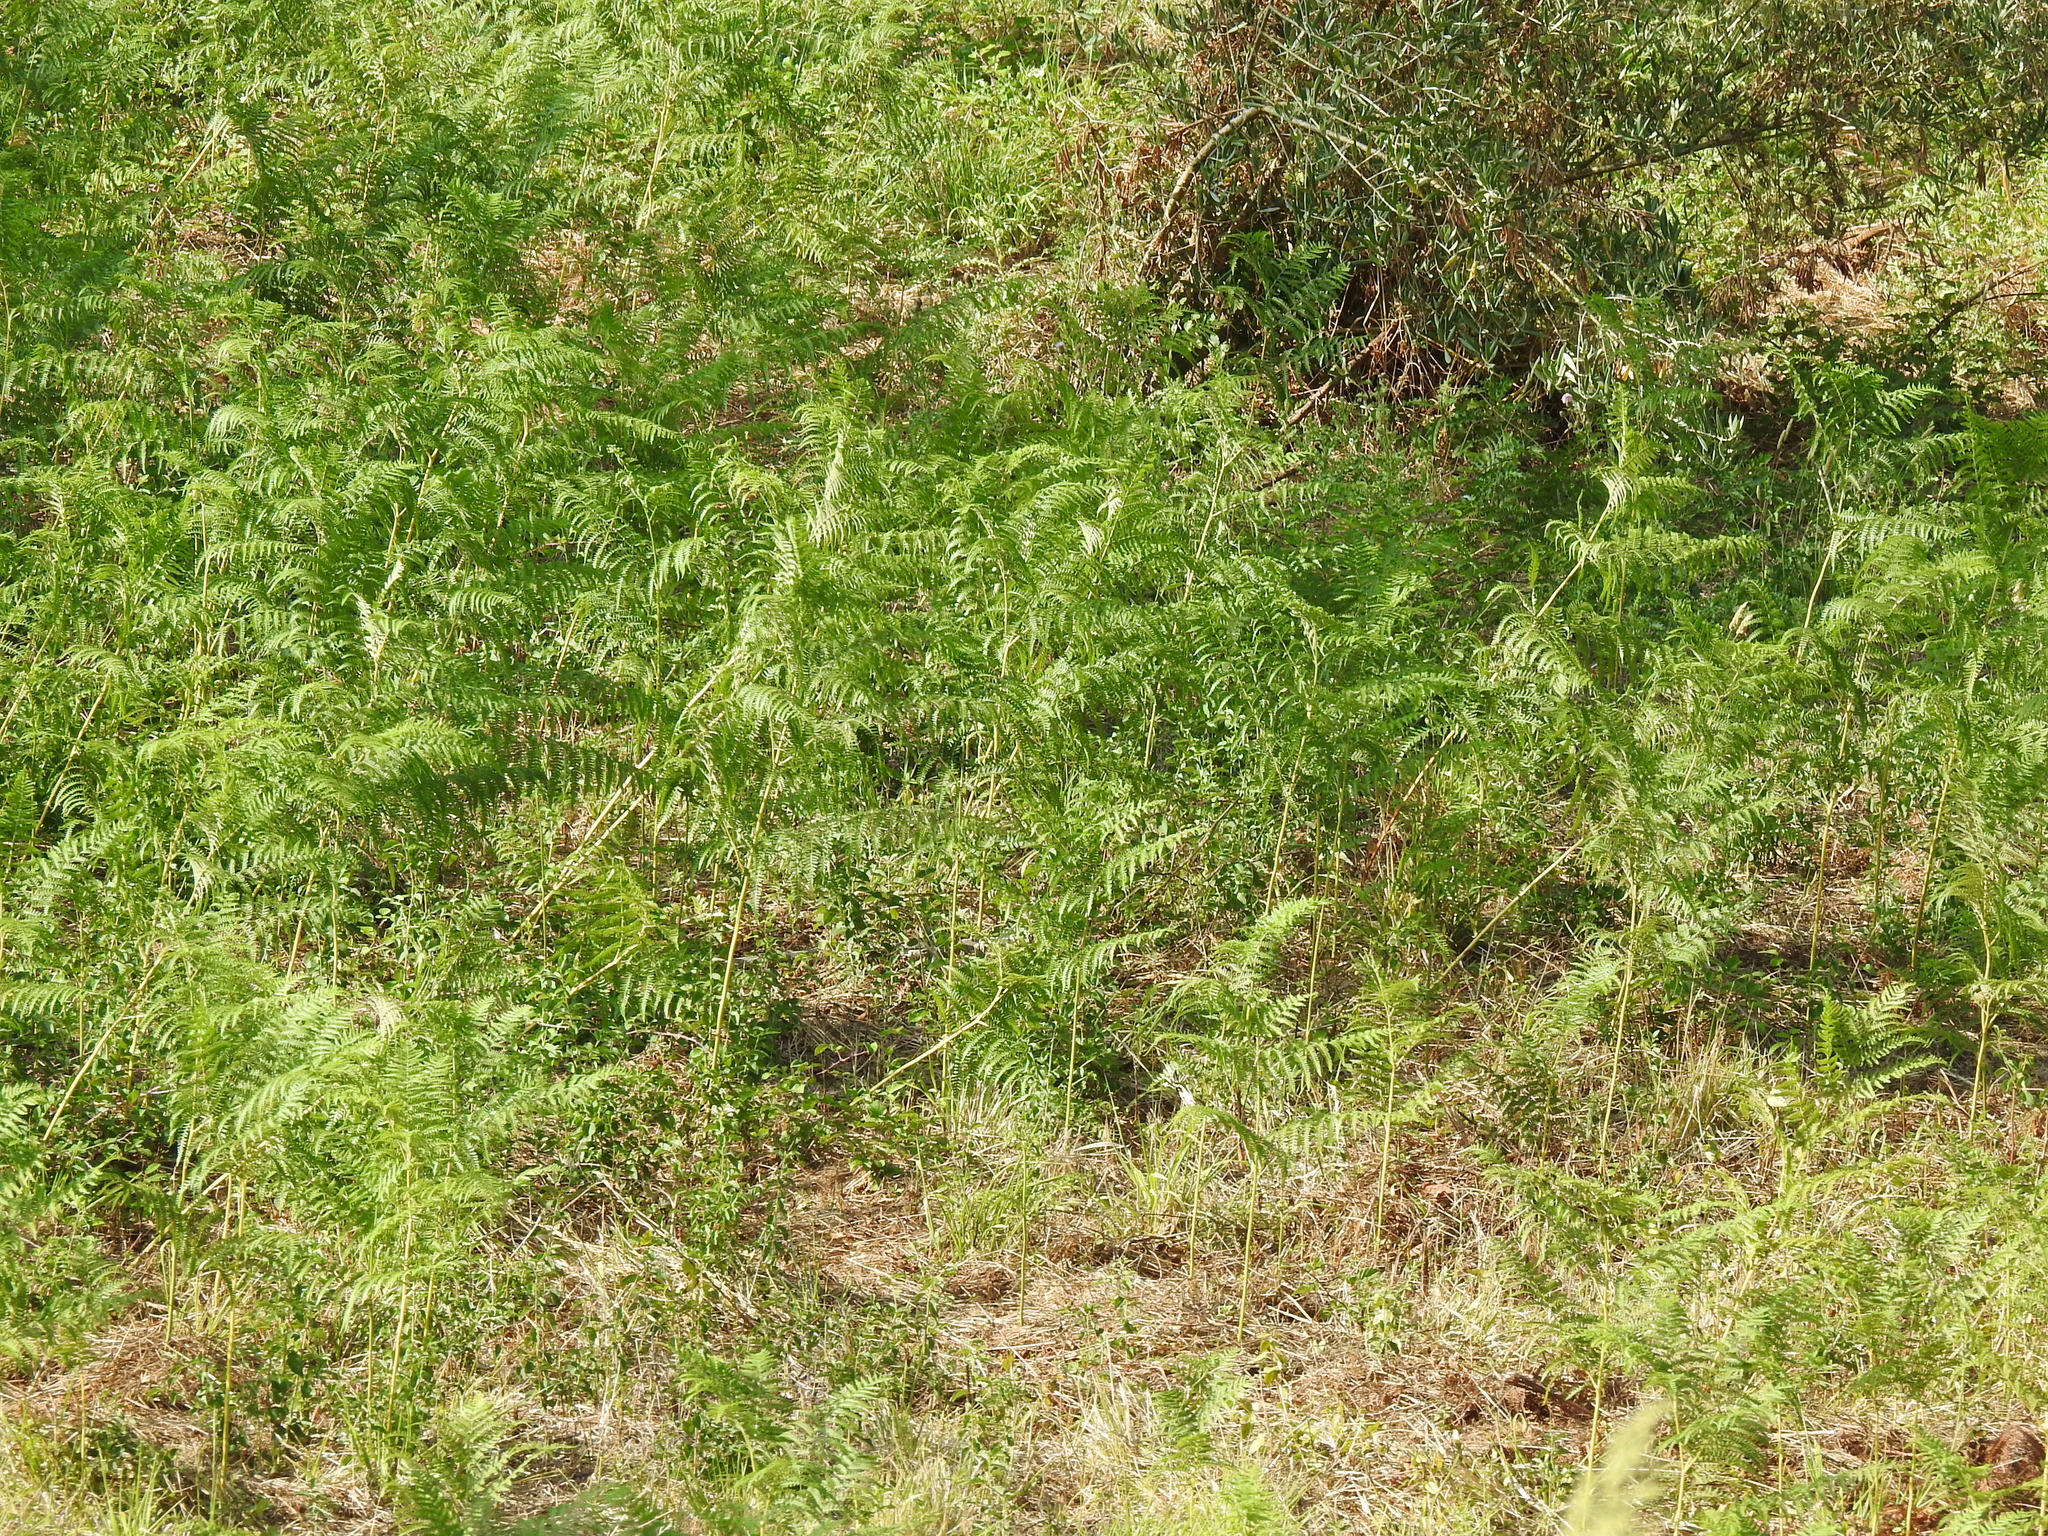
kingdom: Plantae
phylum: Tracheophyta
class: Polypodiopsida
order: Polypodiales
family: Dennstaedtiaceae
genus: Pteridium
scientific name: Pteridium aquilinum
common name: Bracken
